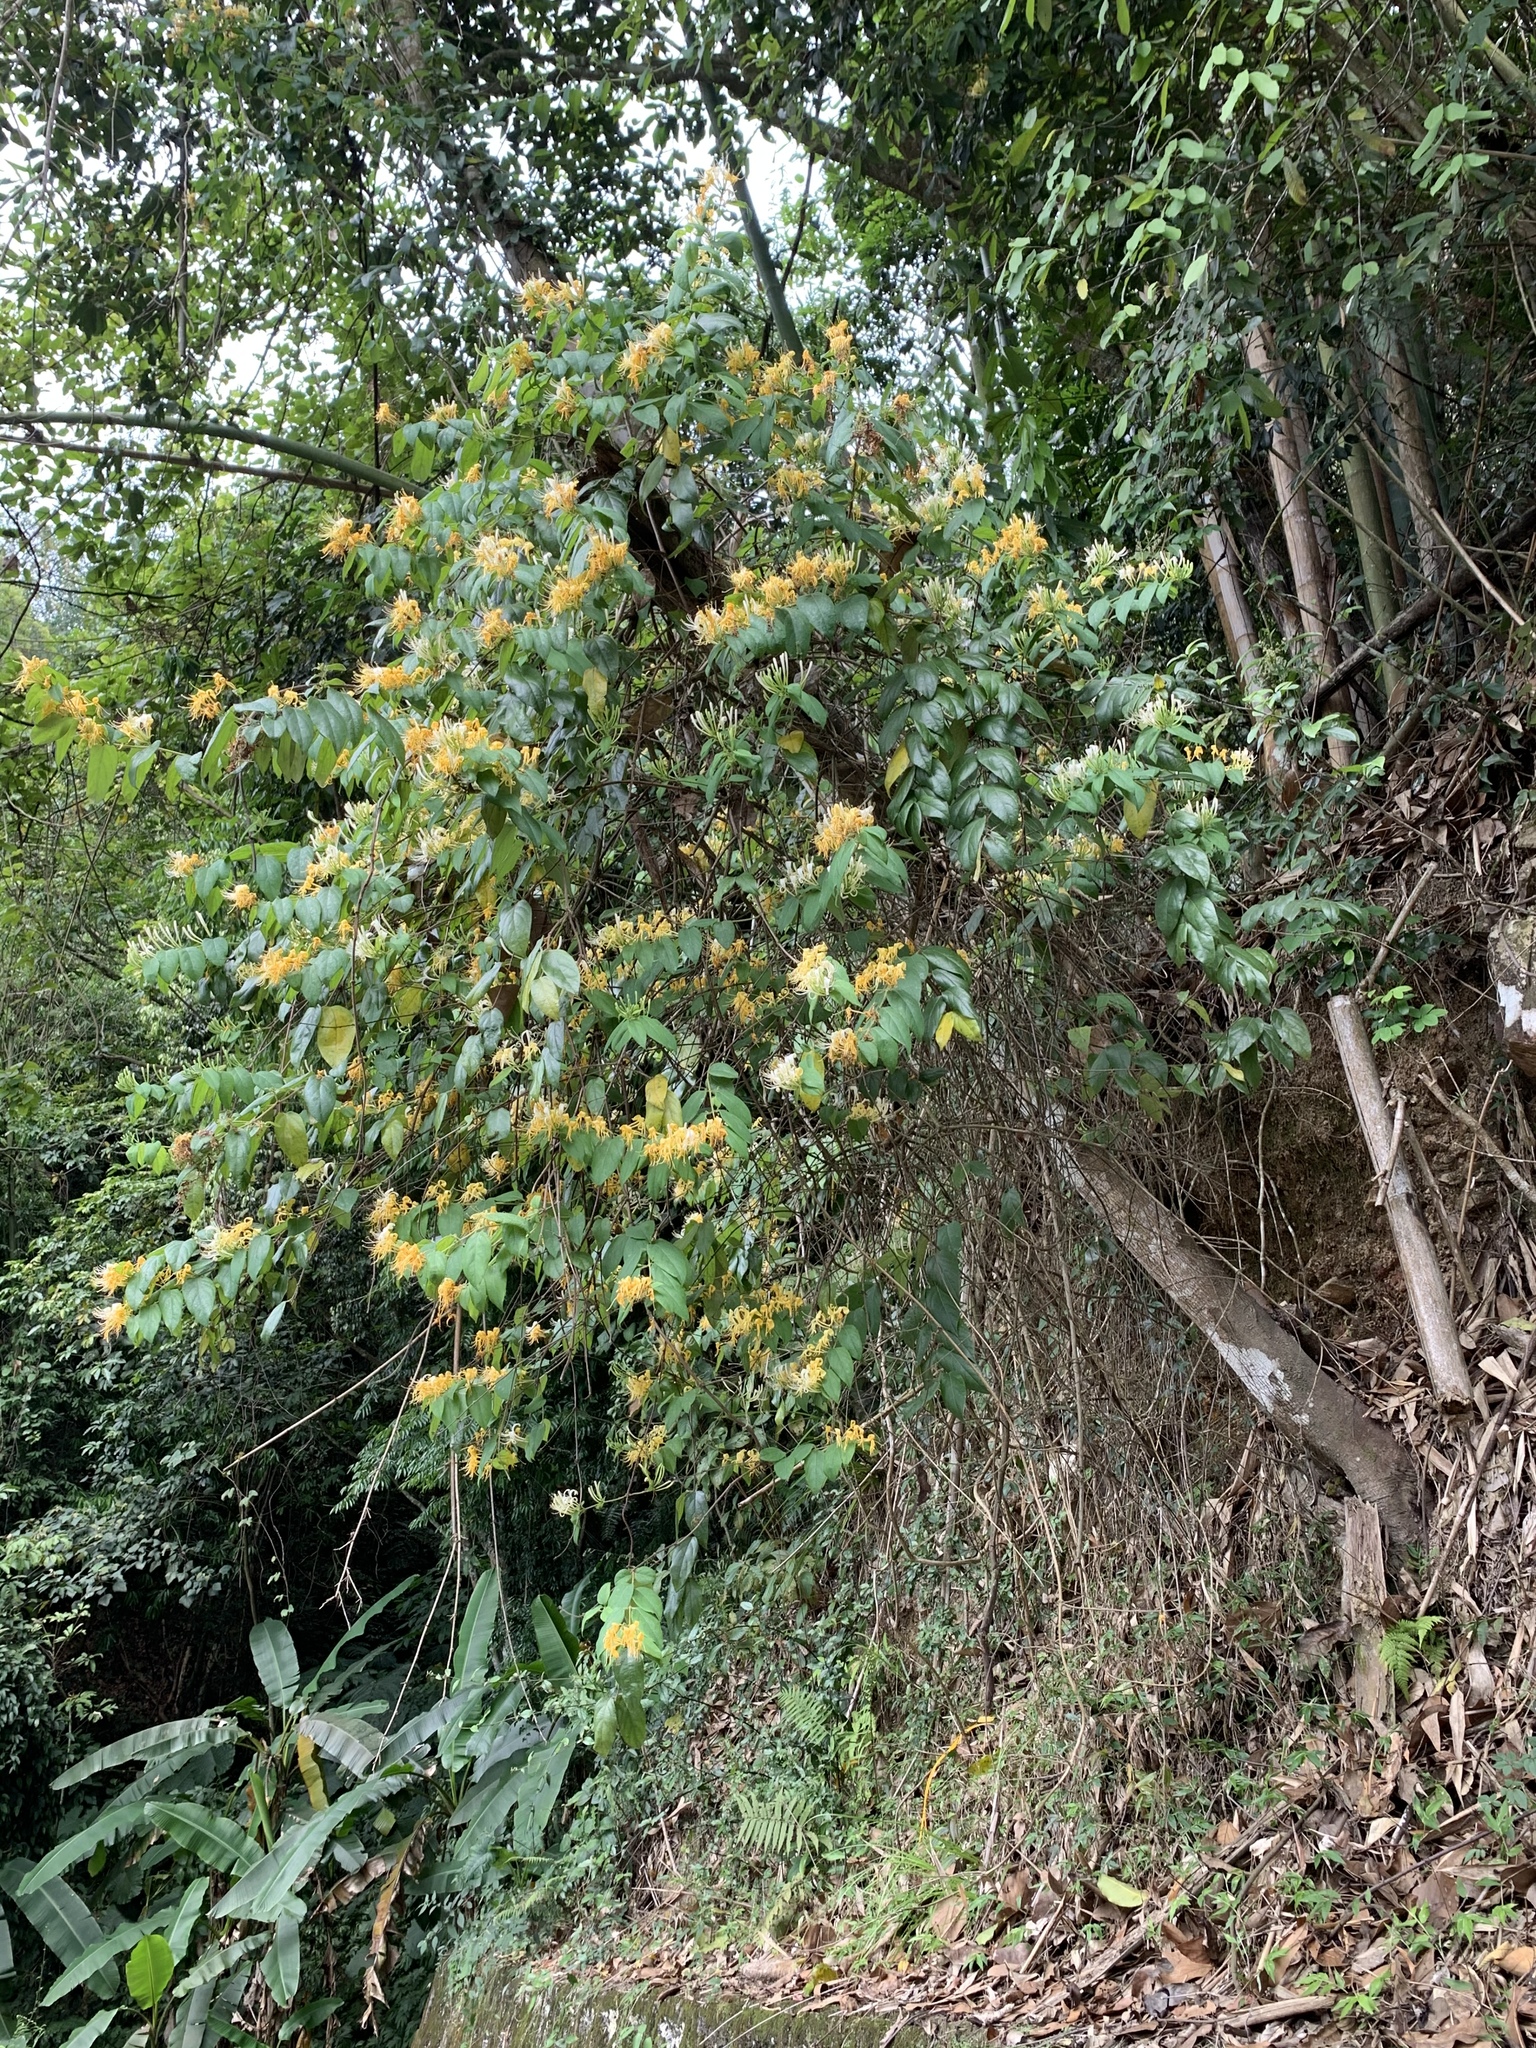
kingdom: Plantae
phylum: Tracheophyta
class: Magnoliopsida
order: Dipsacales
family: Caprifoliaceae
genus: Lonicera
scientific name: Lonicera japonica
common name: Japanese honeysuckle
